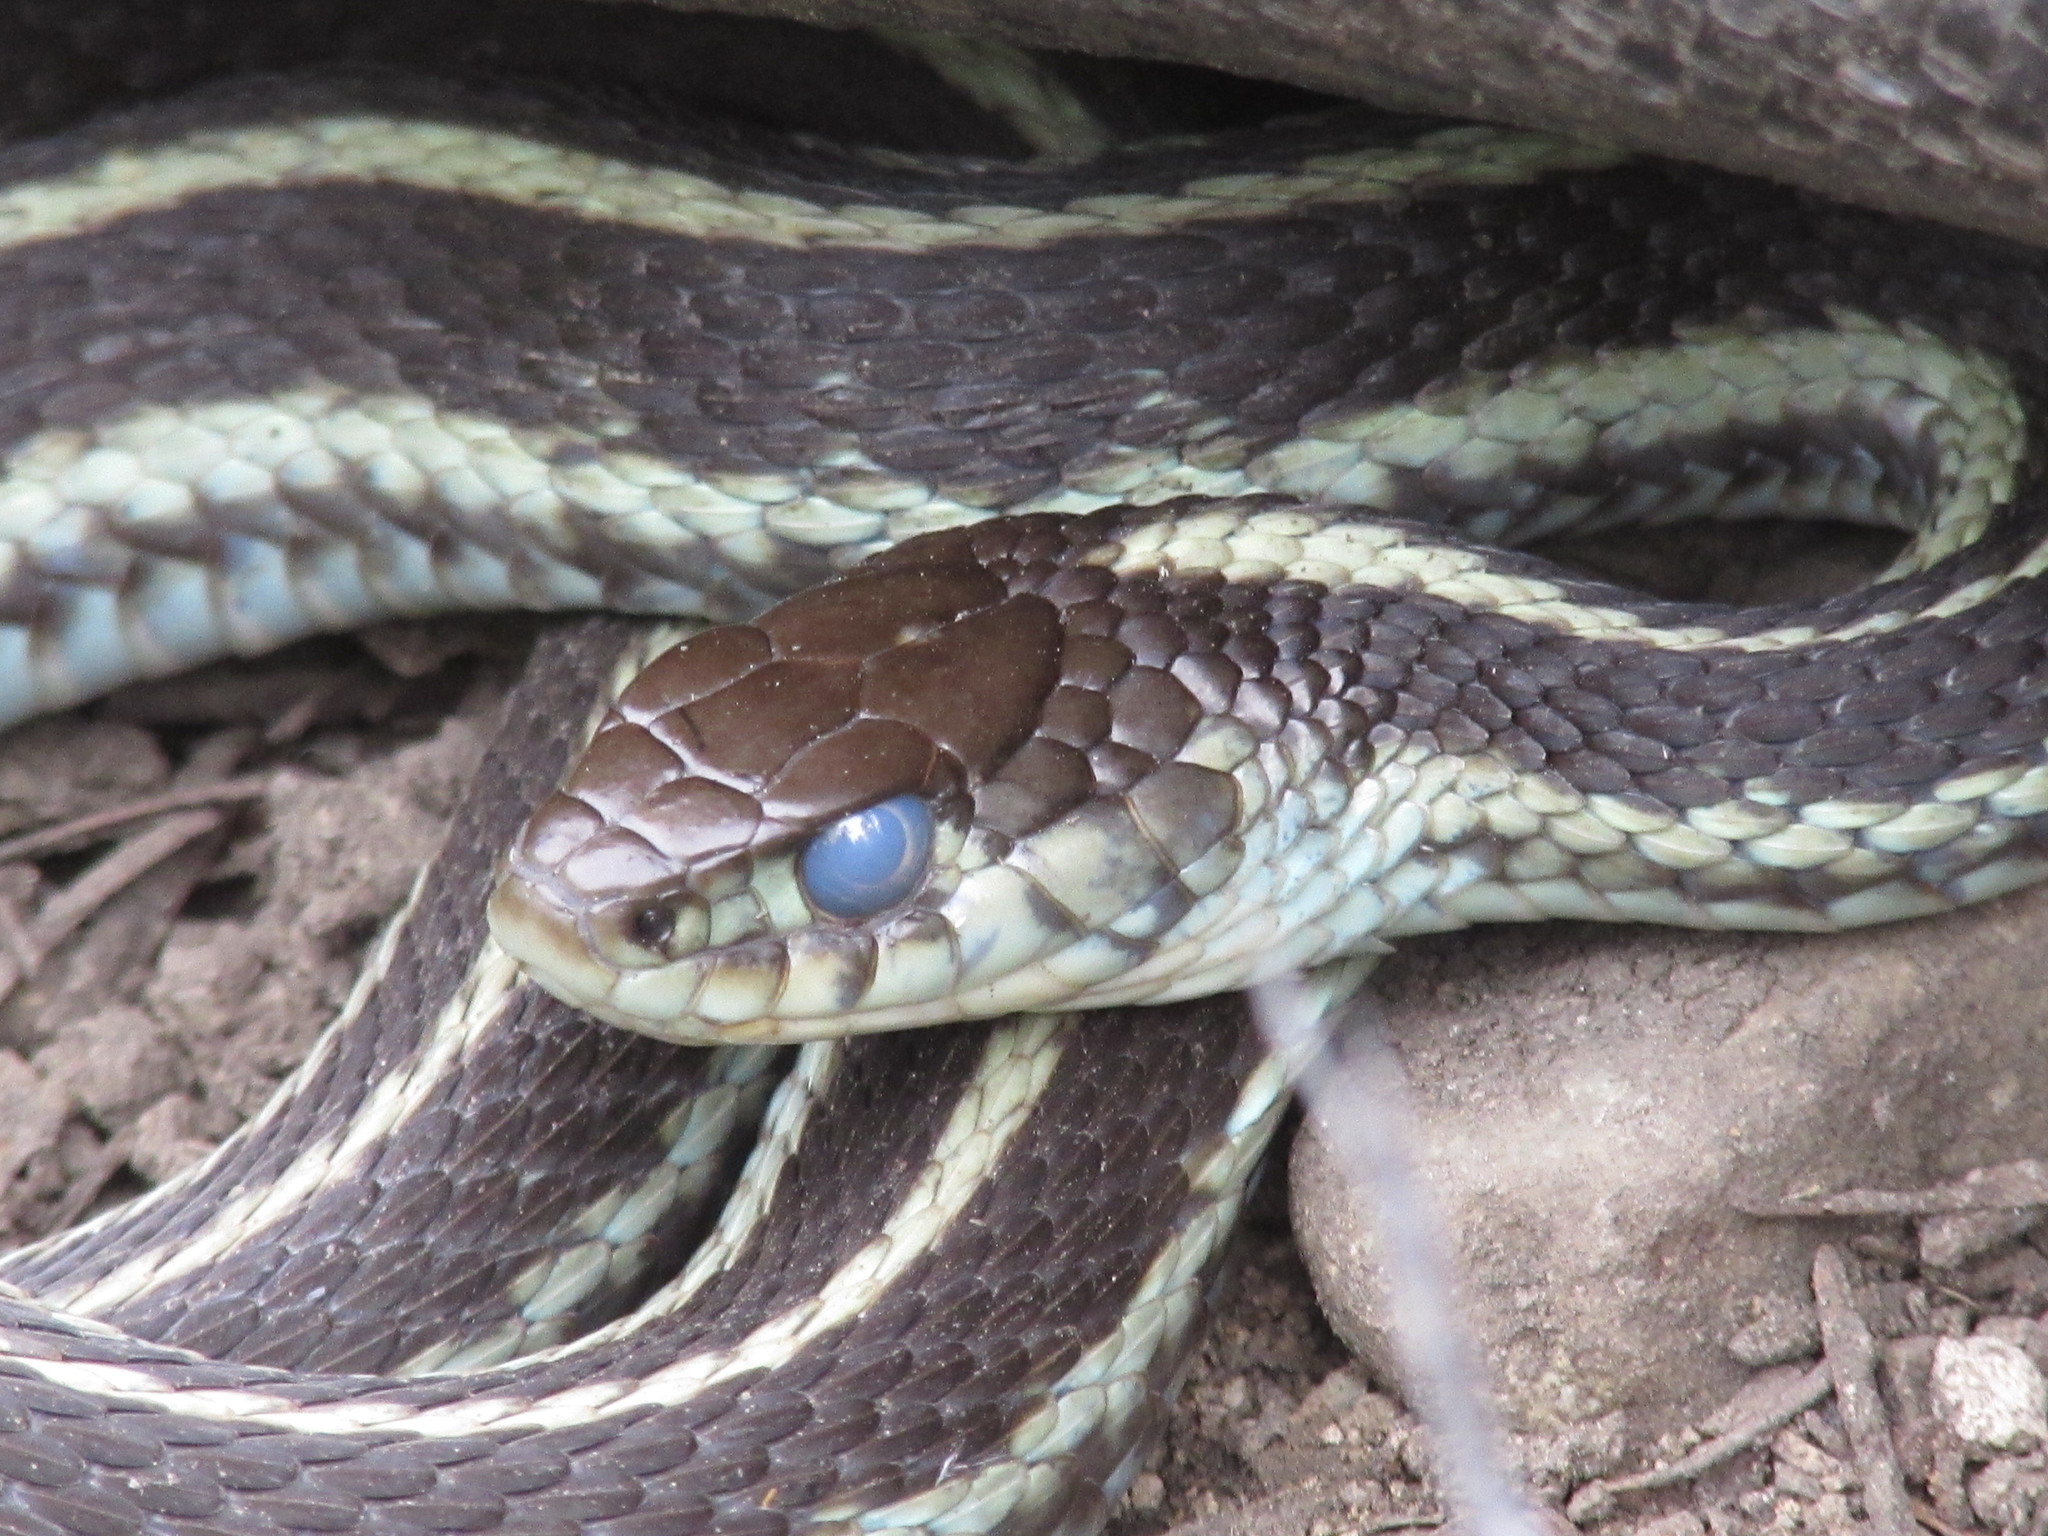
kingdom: Animalia
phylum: Chordata
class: Squamata
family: Colubridae
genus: Thamnophis
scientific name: Thamnophis sirtalis
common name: Common garter snake
